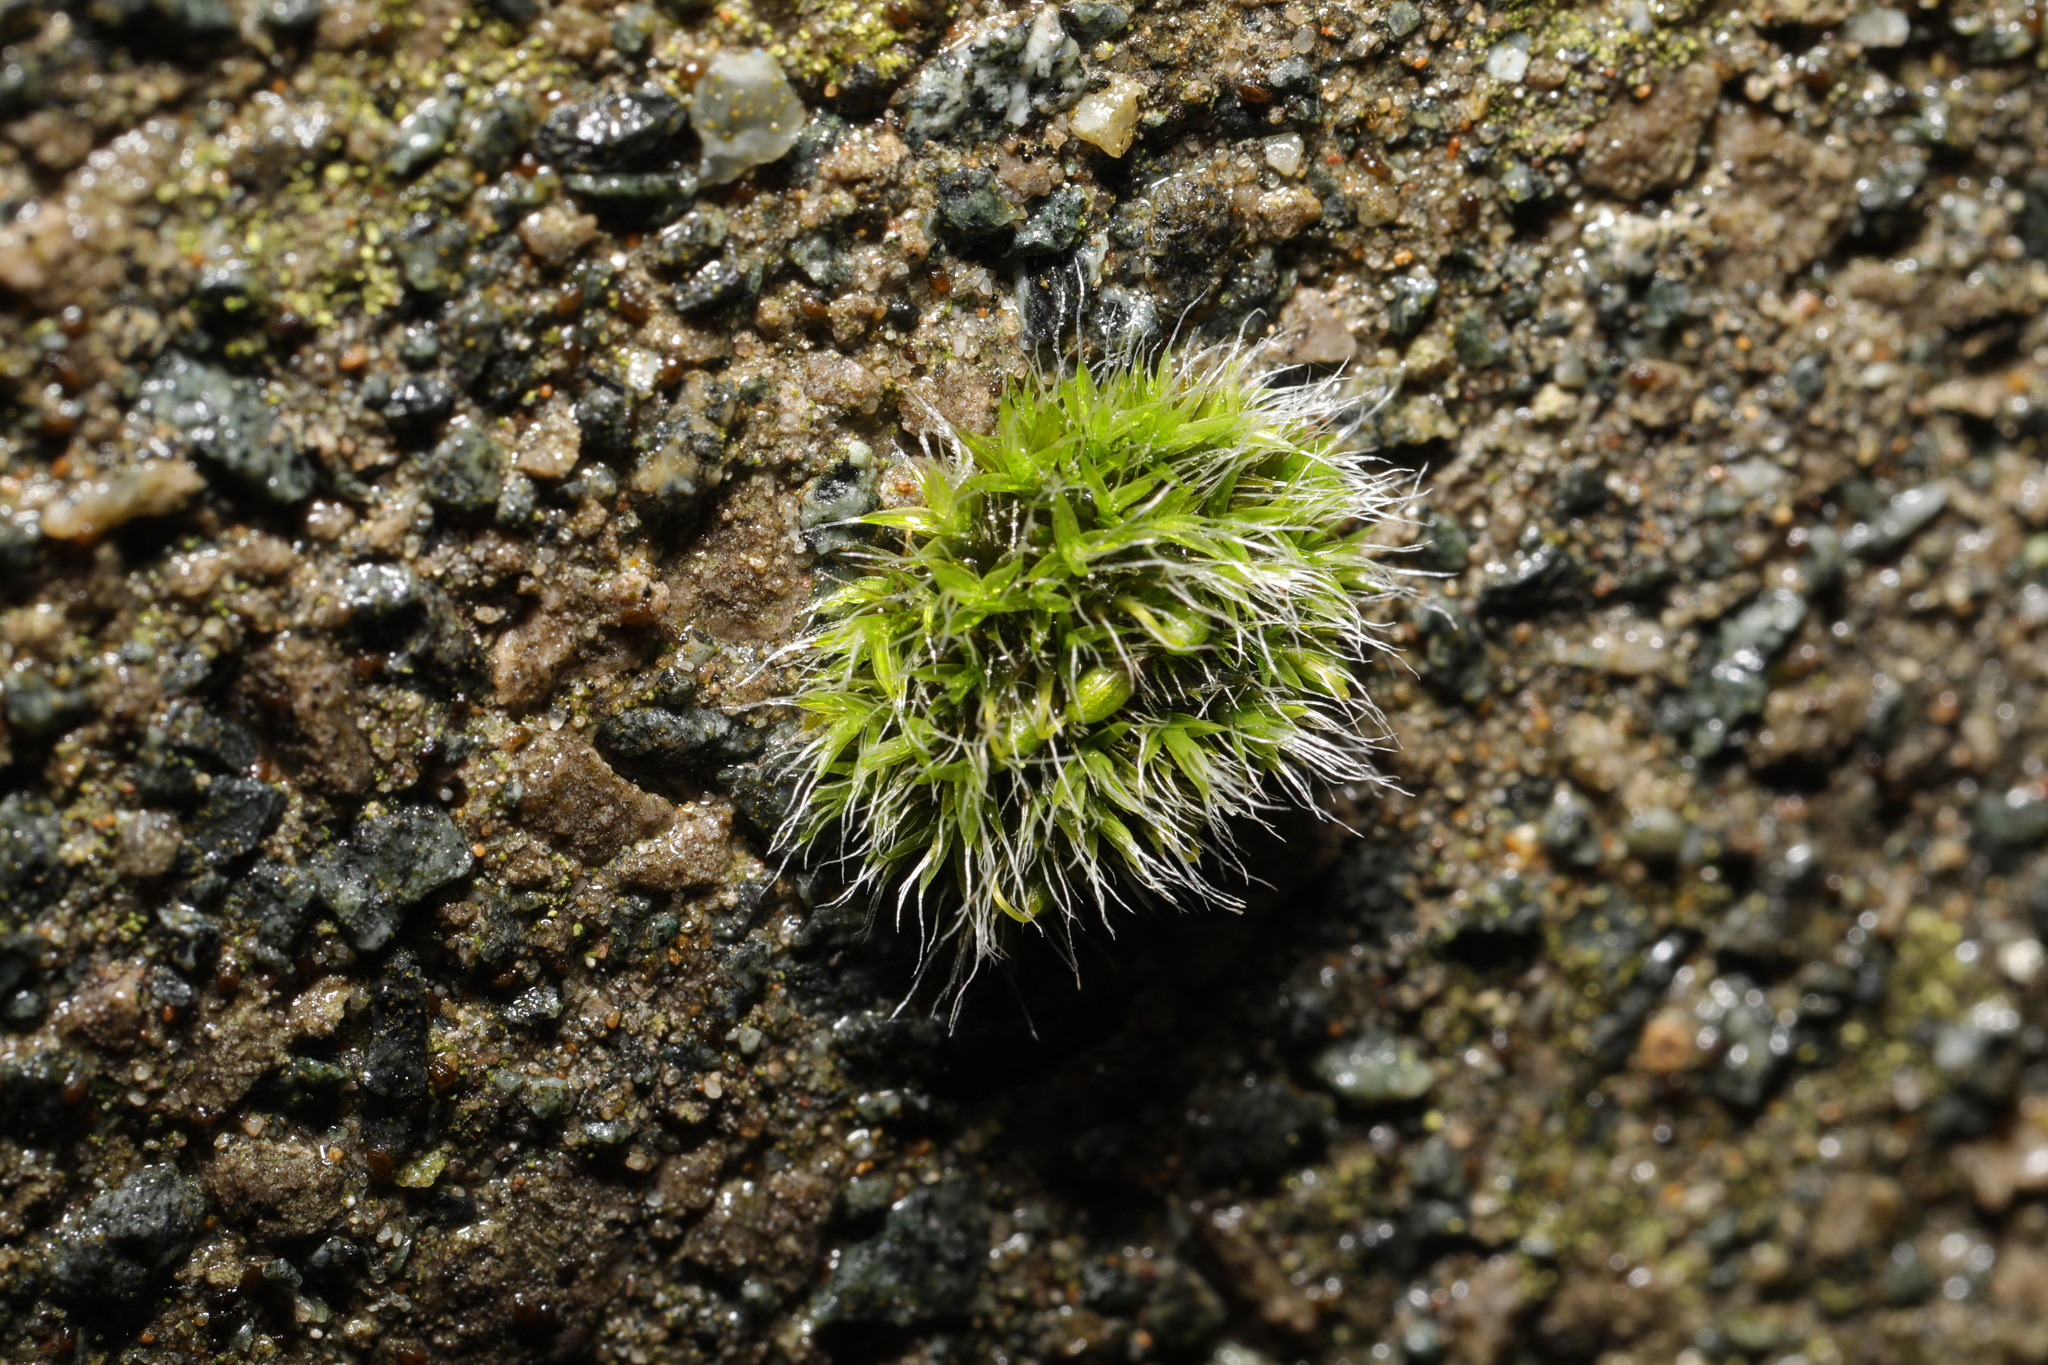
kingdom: Plantae
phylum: Bryophyta
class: Bryopsida
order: Grimmiales
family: Grimmiaceae
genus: Grimmia
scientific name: Grimmia pulvinata
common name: Grey-cushioned grimmia
